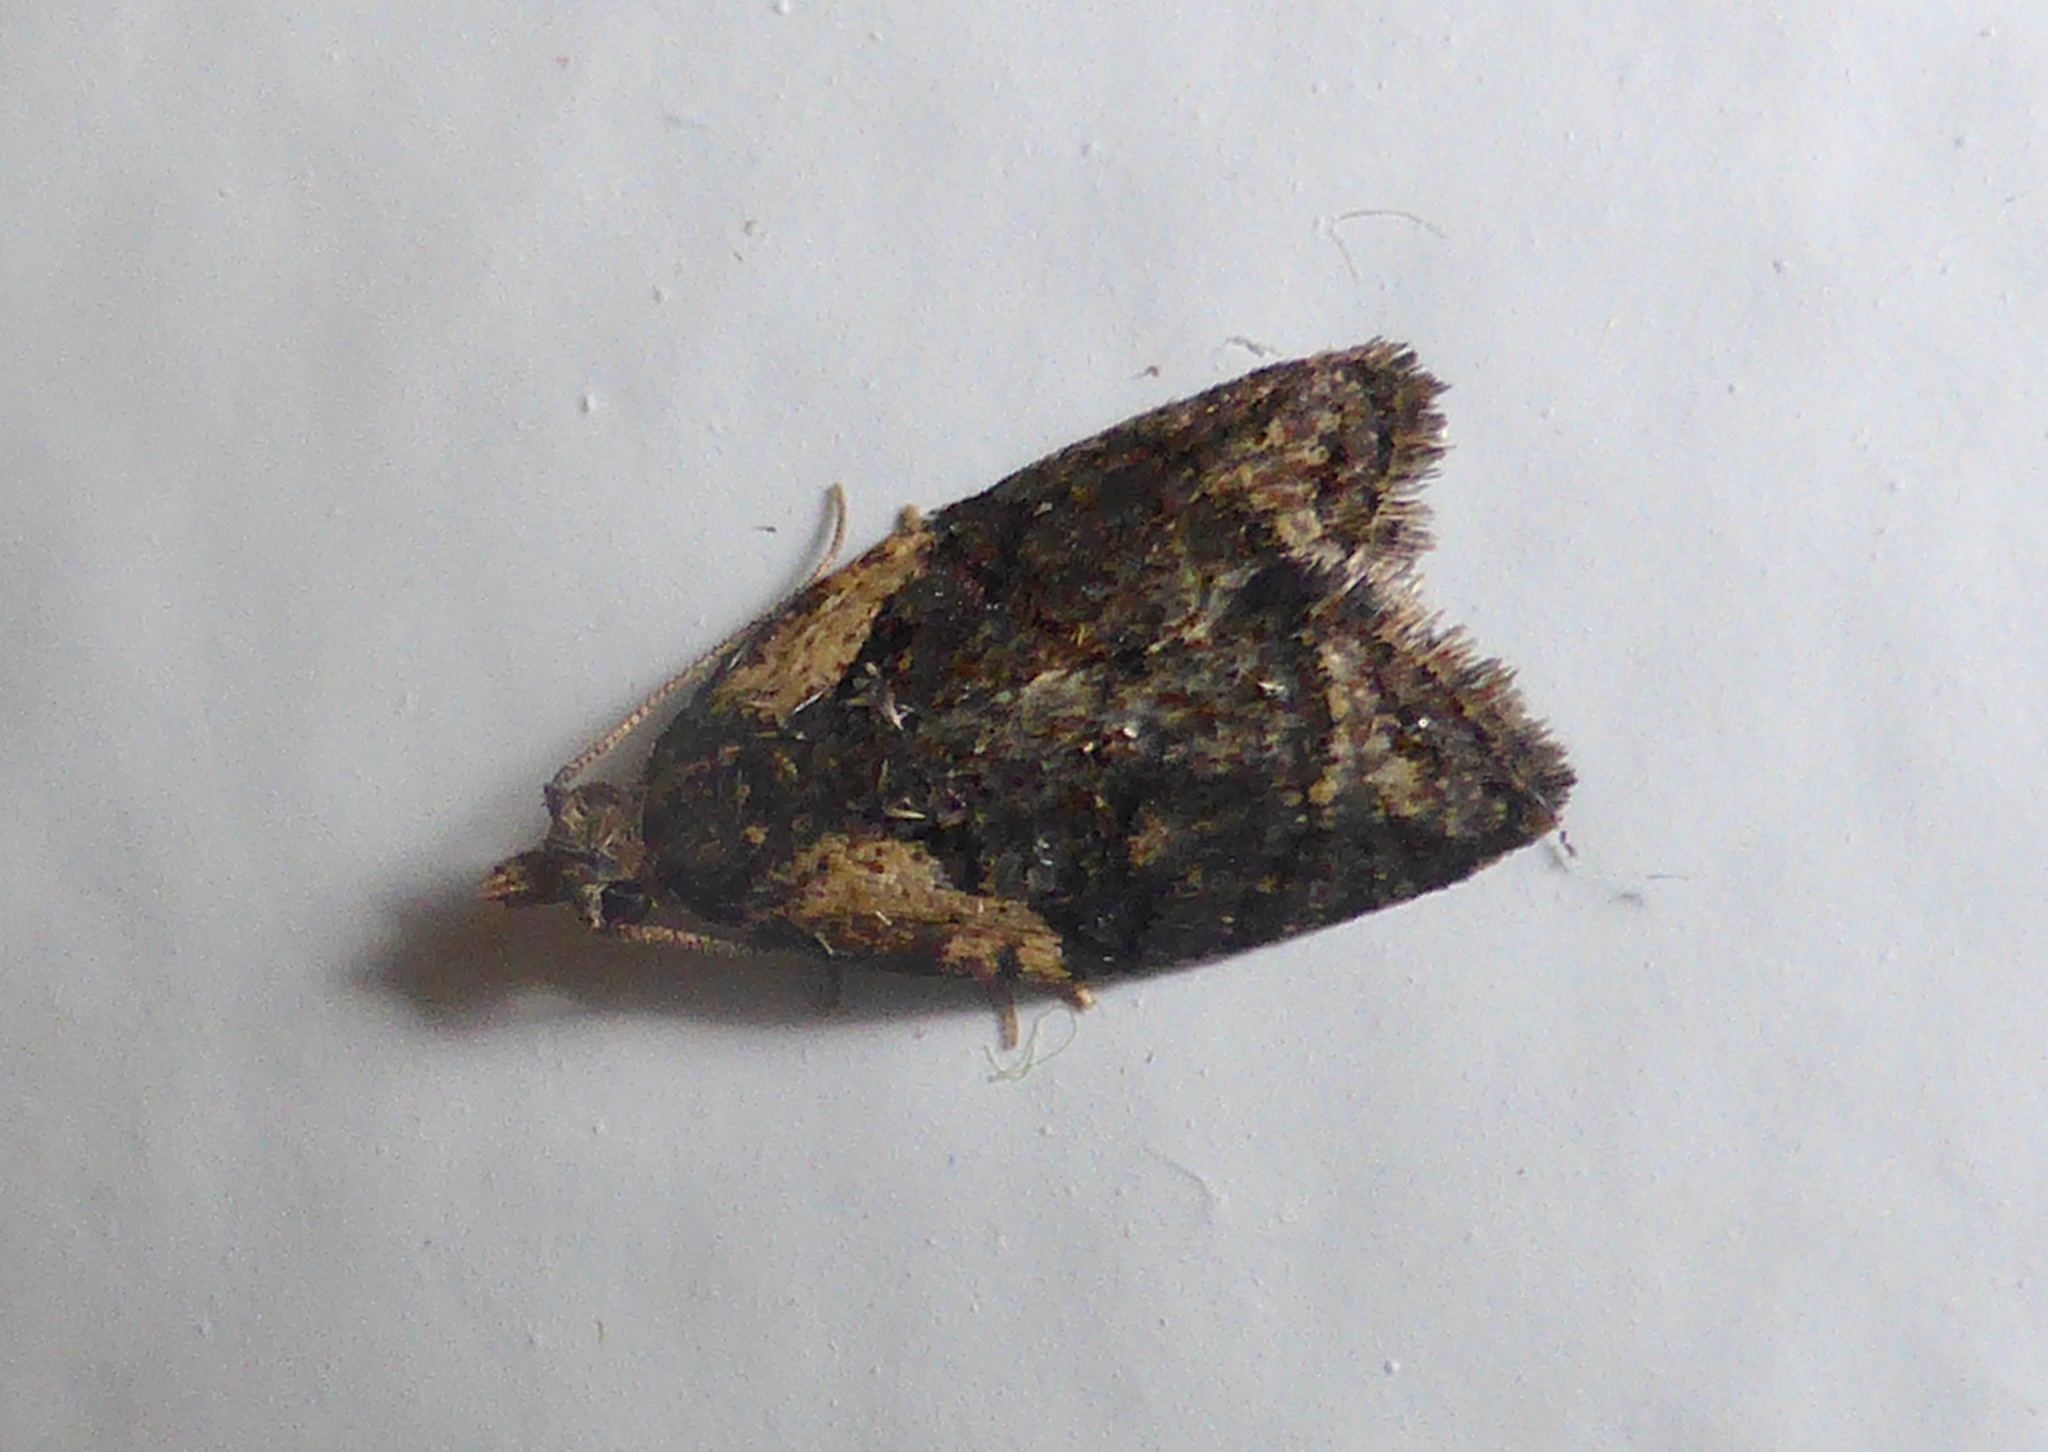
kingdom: Animalia
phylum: Arthropoda
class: Insecta
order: Lepidoptera
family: Tortricidae
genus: Capua
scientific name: Capua intractana
